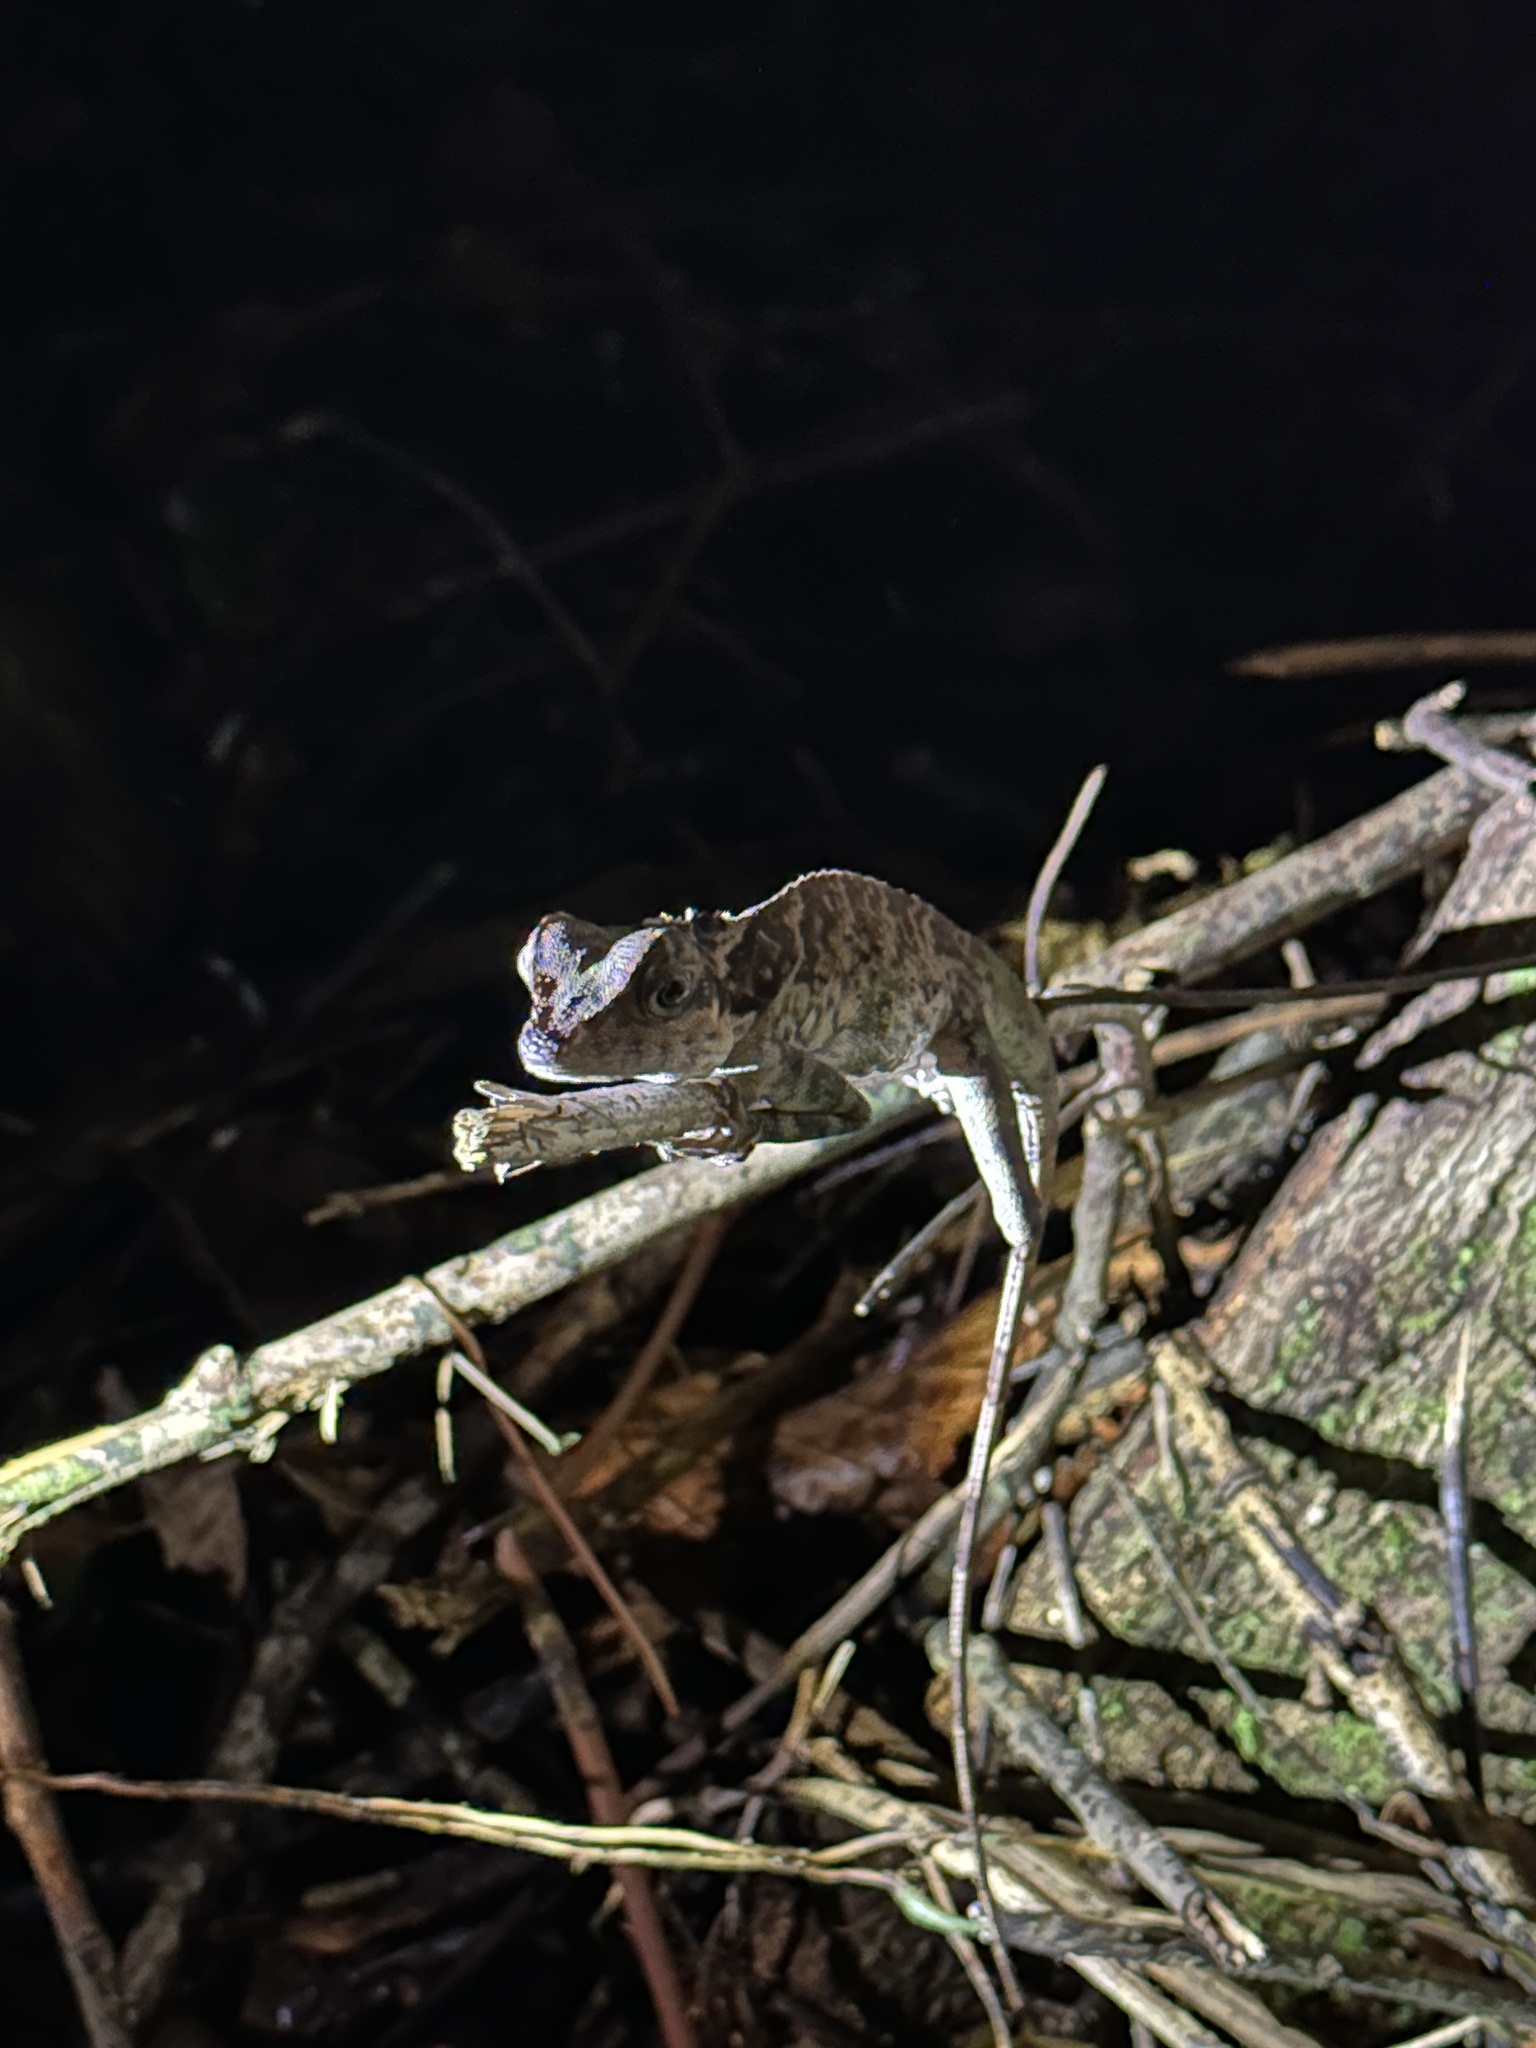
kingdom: Animalia
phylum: Chordata
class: Squamata
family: Agamidae
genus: Gonocephalus
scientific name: Gonocephalus grandis
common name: Giant forest dragon
